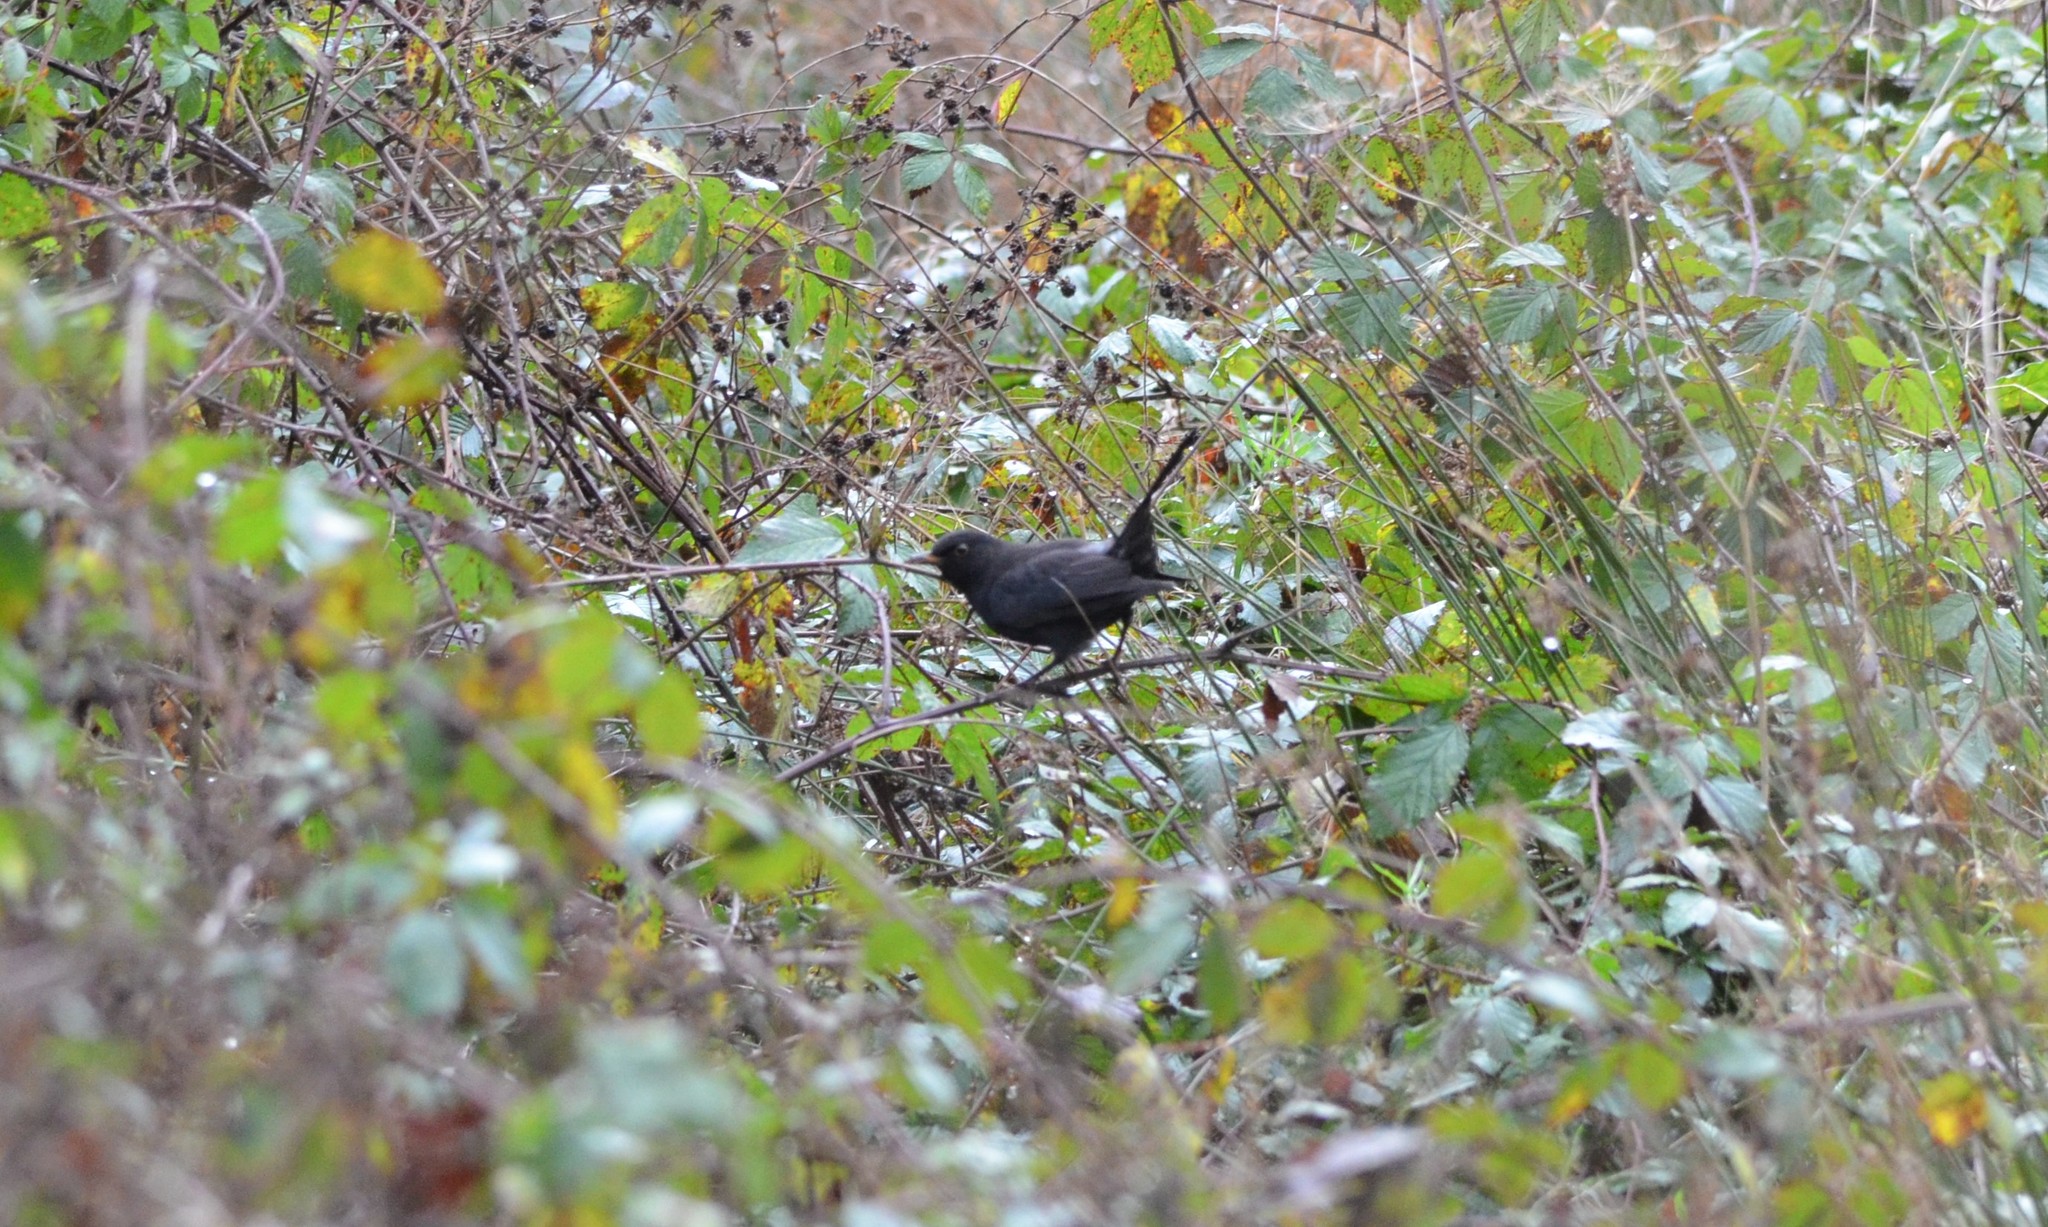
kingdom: Animalia
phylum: Chordata
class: Aves
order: Passeriformes
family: Turdidae
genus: Turdus
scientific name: Turdus merula
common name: Common blackbird
